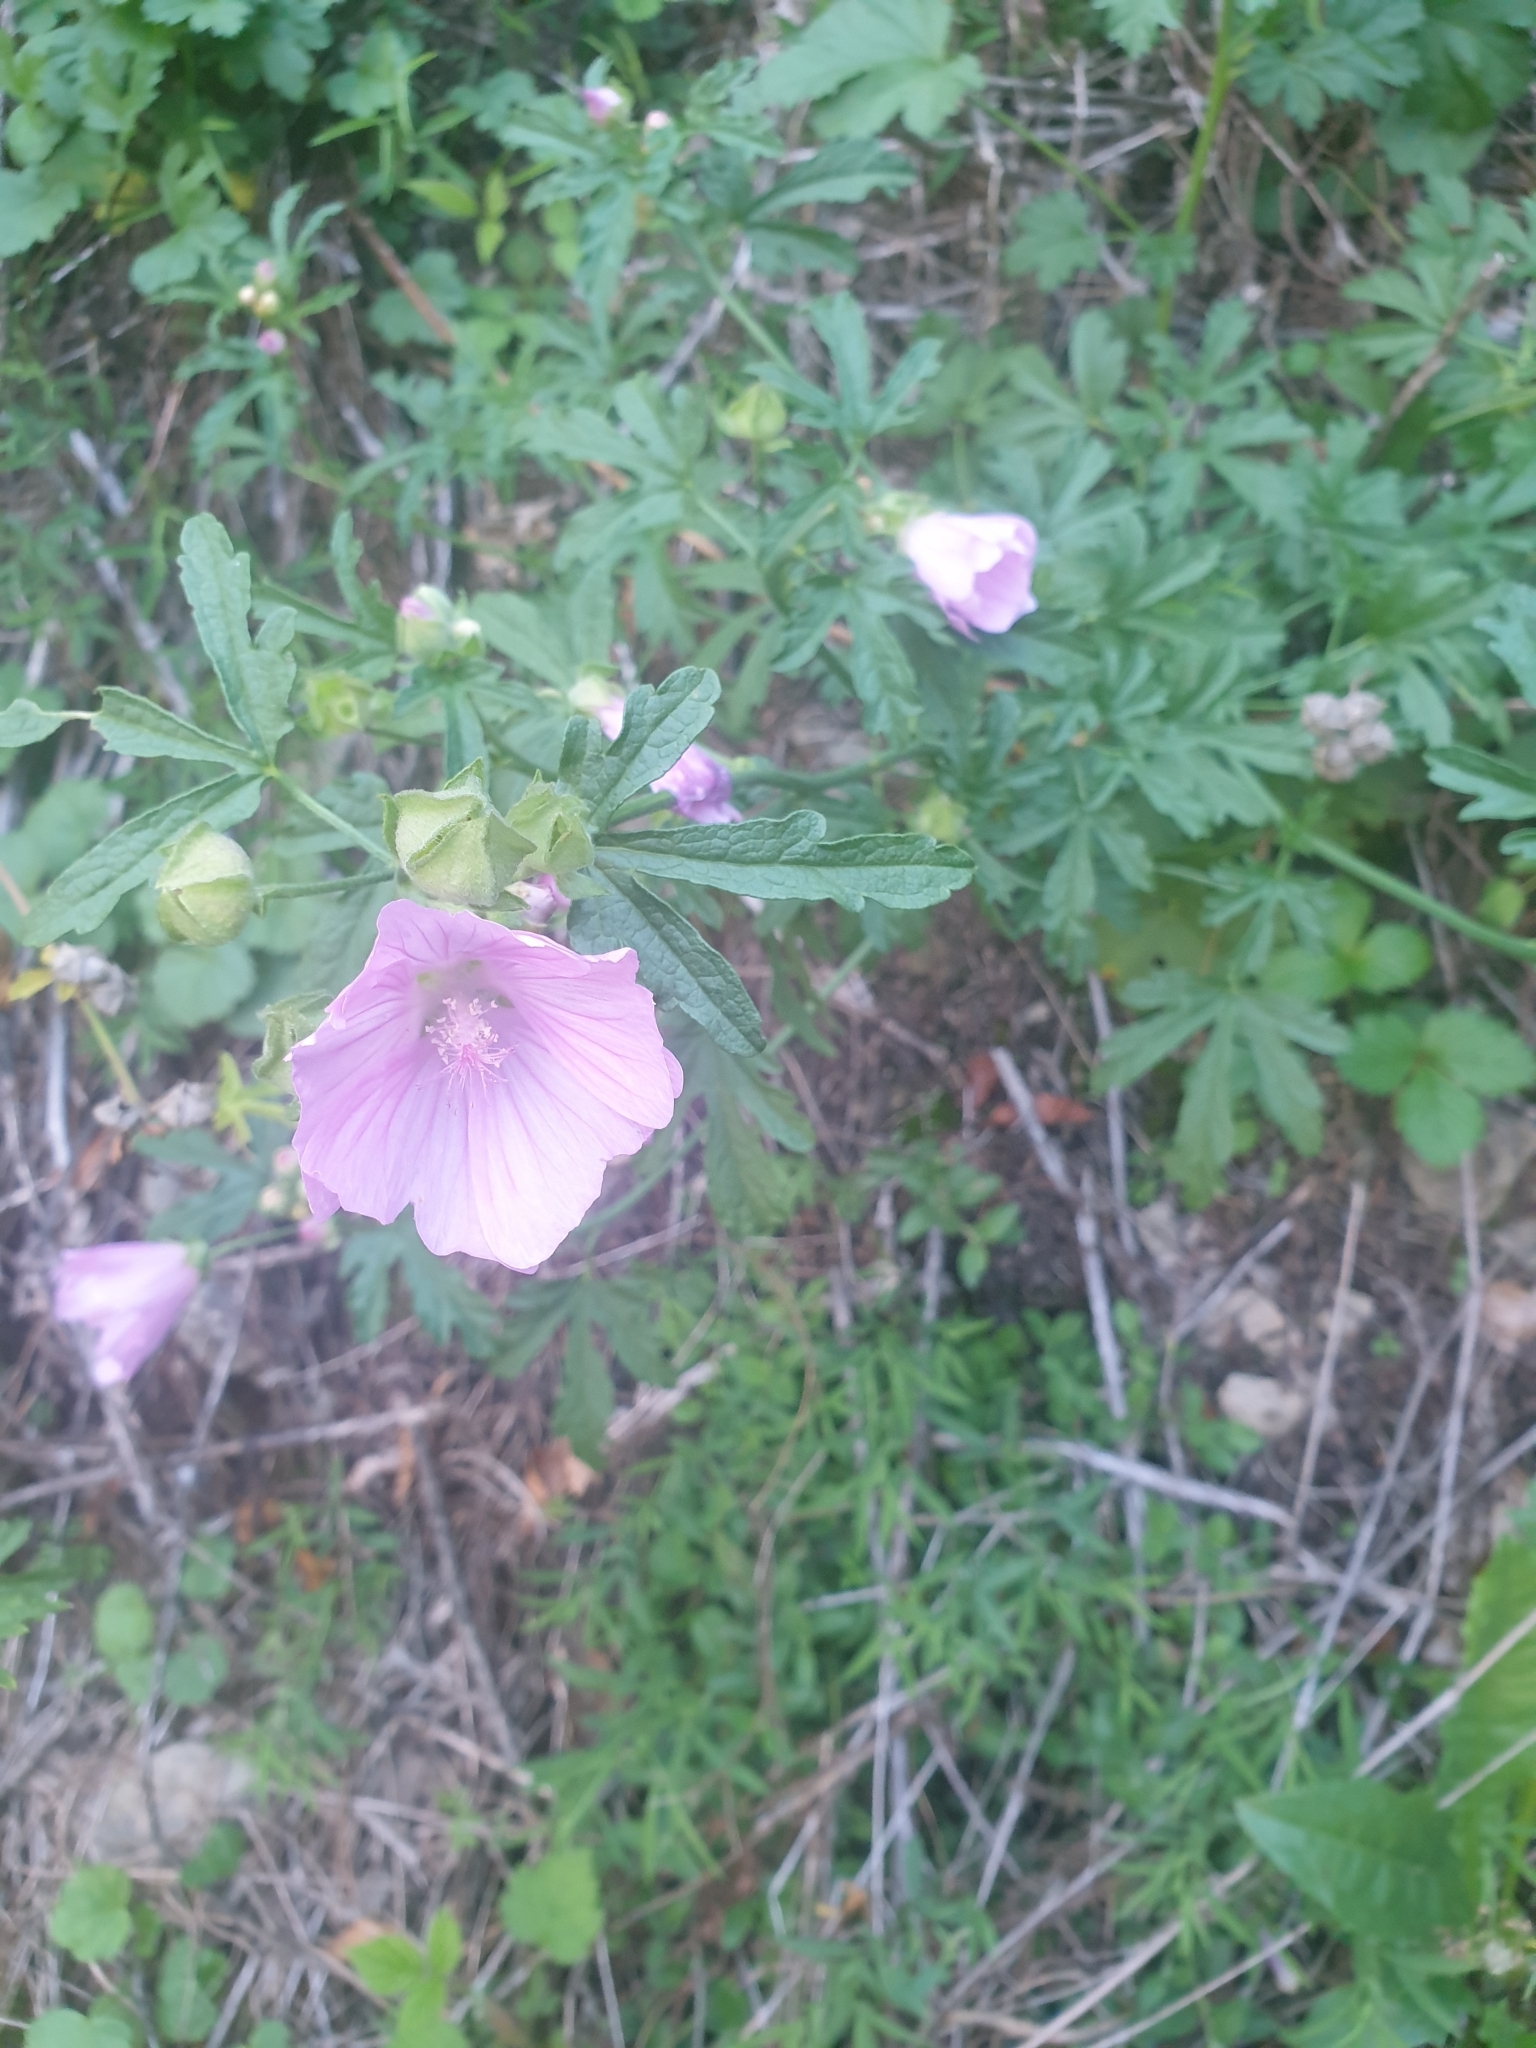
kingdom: Plantae
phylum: Tracheophyta
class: Magnoliopsida
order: Malvales
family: Malvaceae
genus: Malva
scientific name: Malva alcea
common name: Greater musk-mallow
